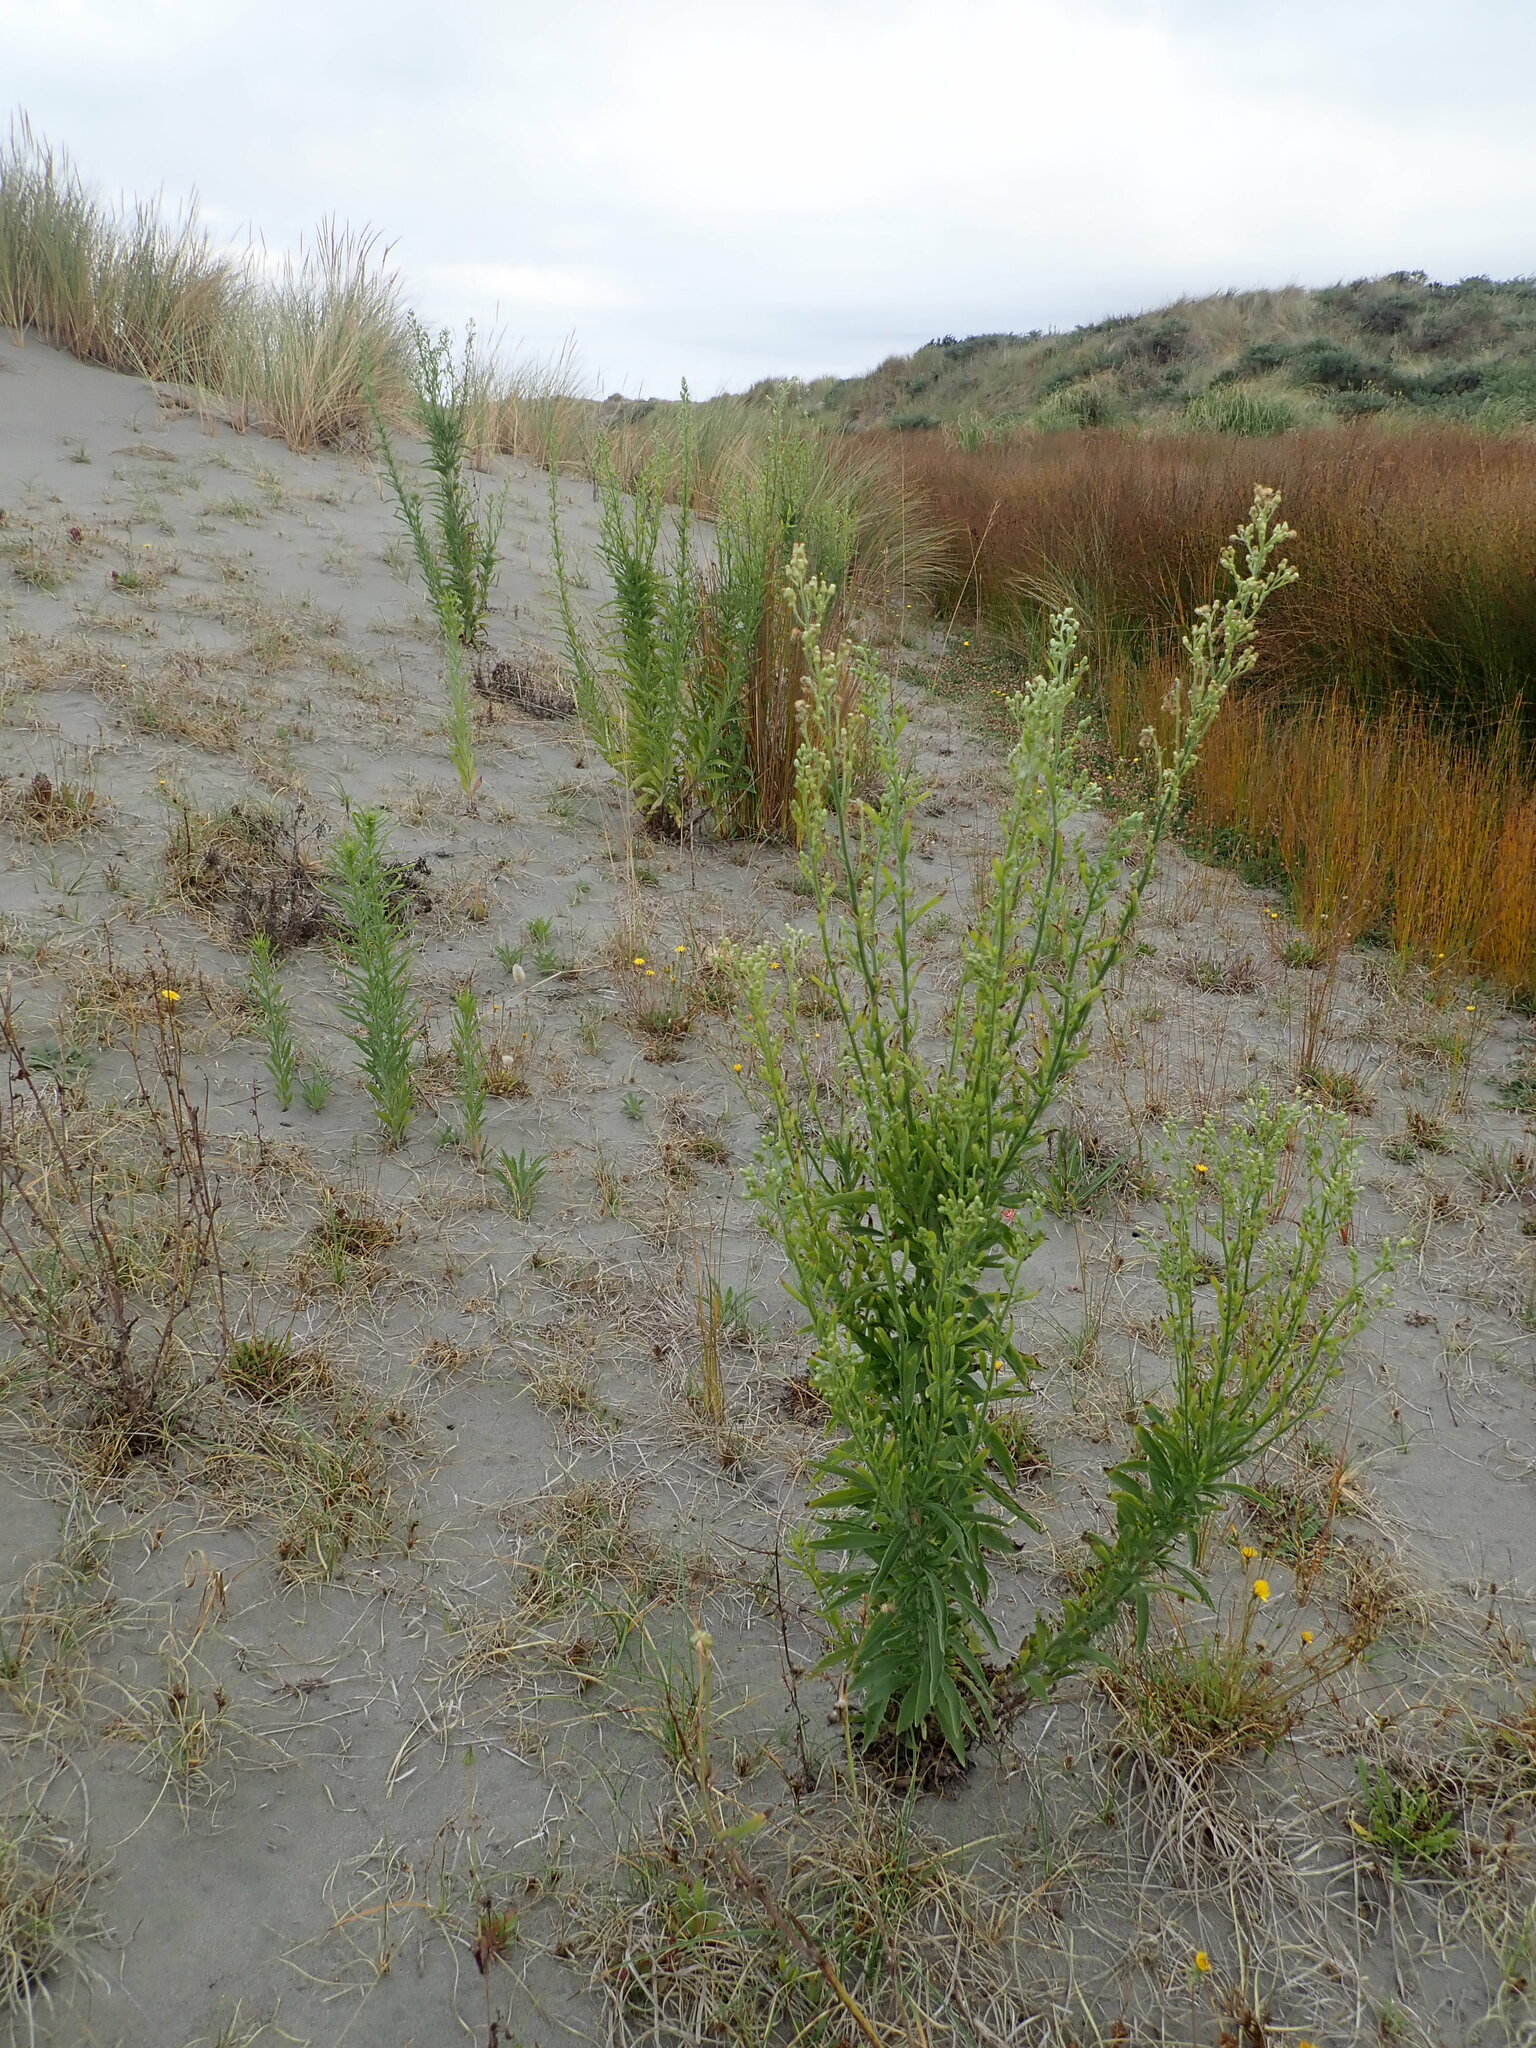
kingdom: Plantae
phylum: Tracheophyta
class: Magnoliopsida
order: Asterales
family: Asteraceae
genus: Erigeron
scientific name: Erigeron sumatrensis
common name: Daisy
